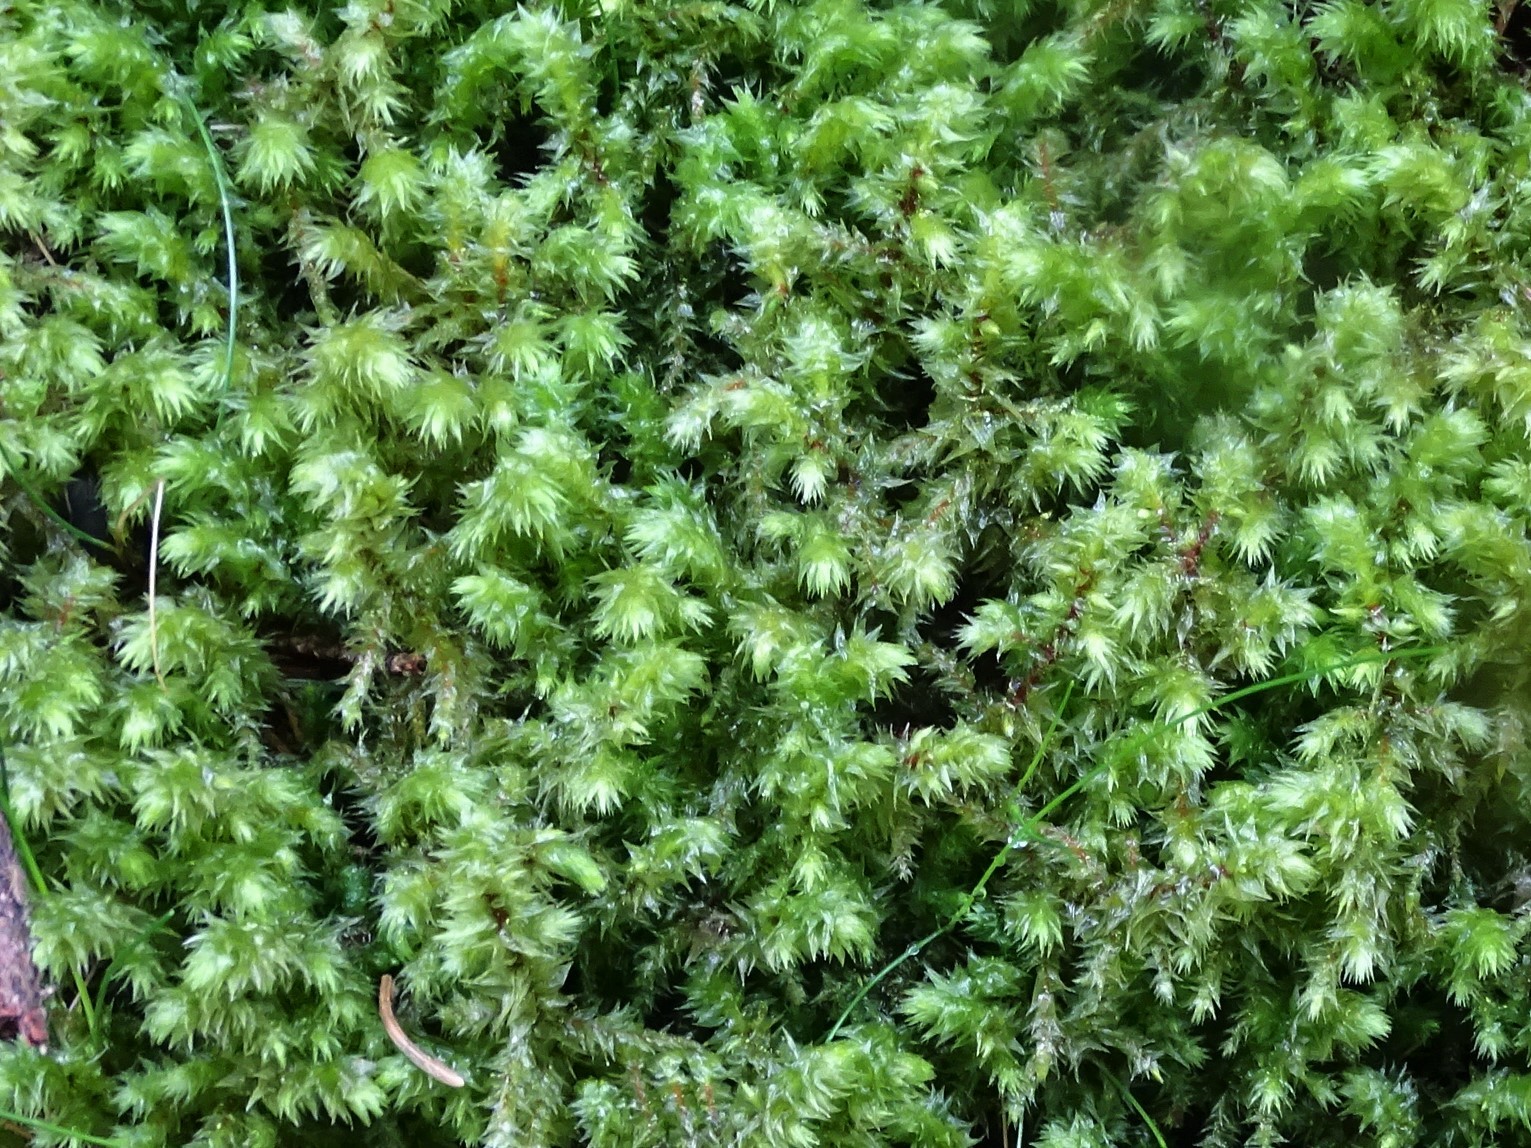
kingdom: Plantae
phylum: Bryophyta
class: Bryopsida
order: Hypnales
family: Hylocomiaceae
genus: Hylocomiadelphus
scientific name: Hylocomiadelphus triquetrus
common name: Rough goose neck moss
